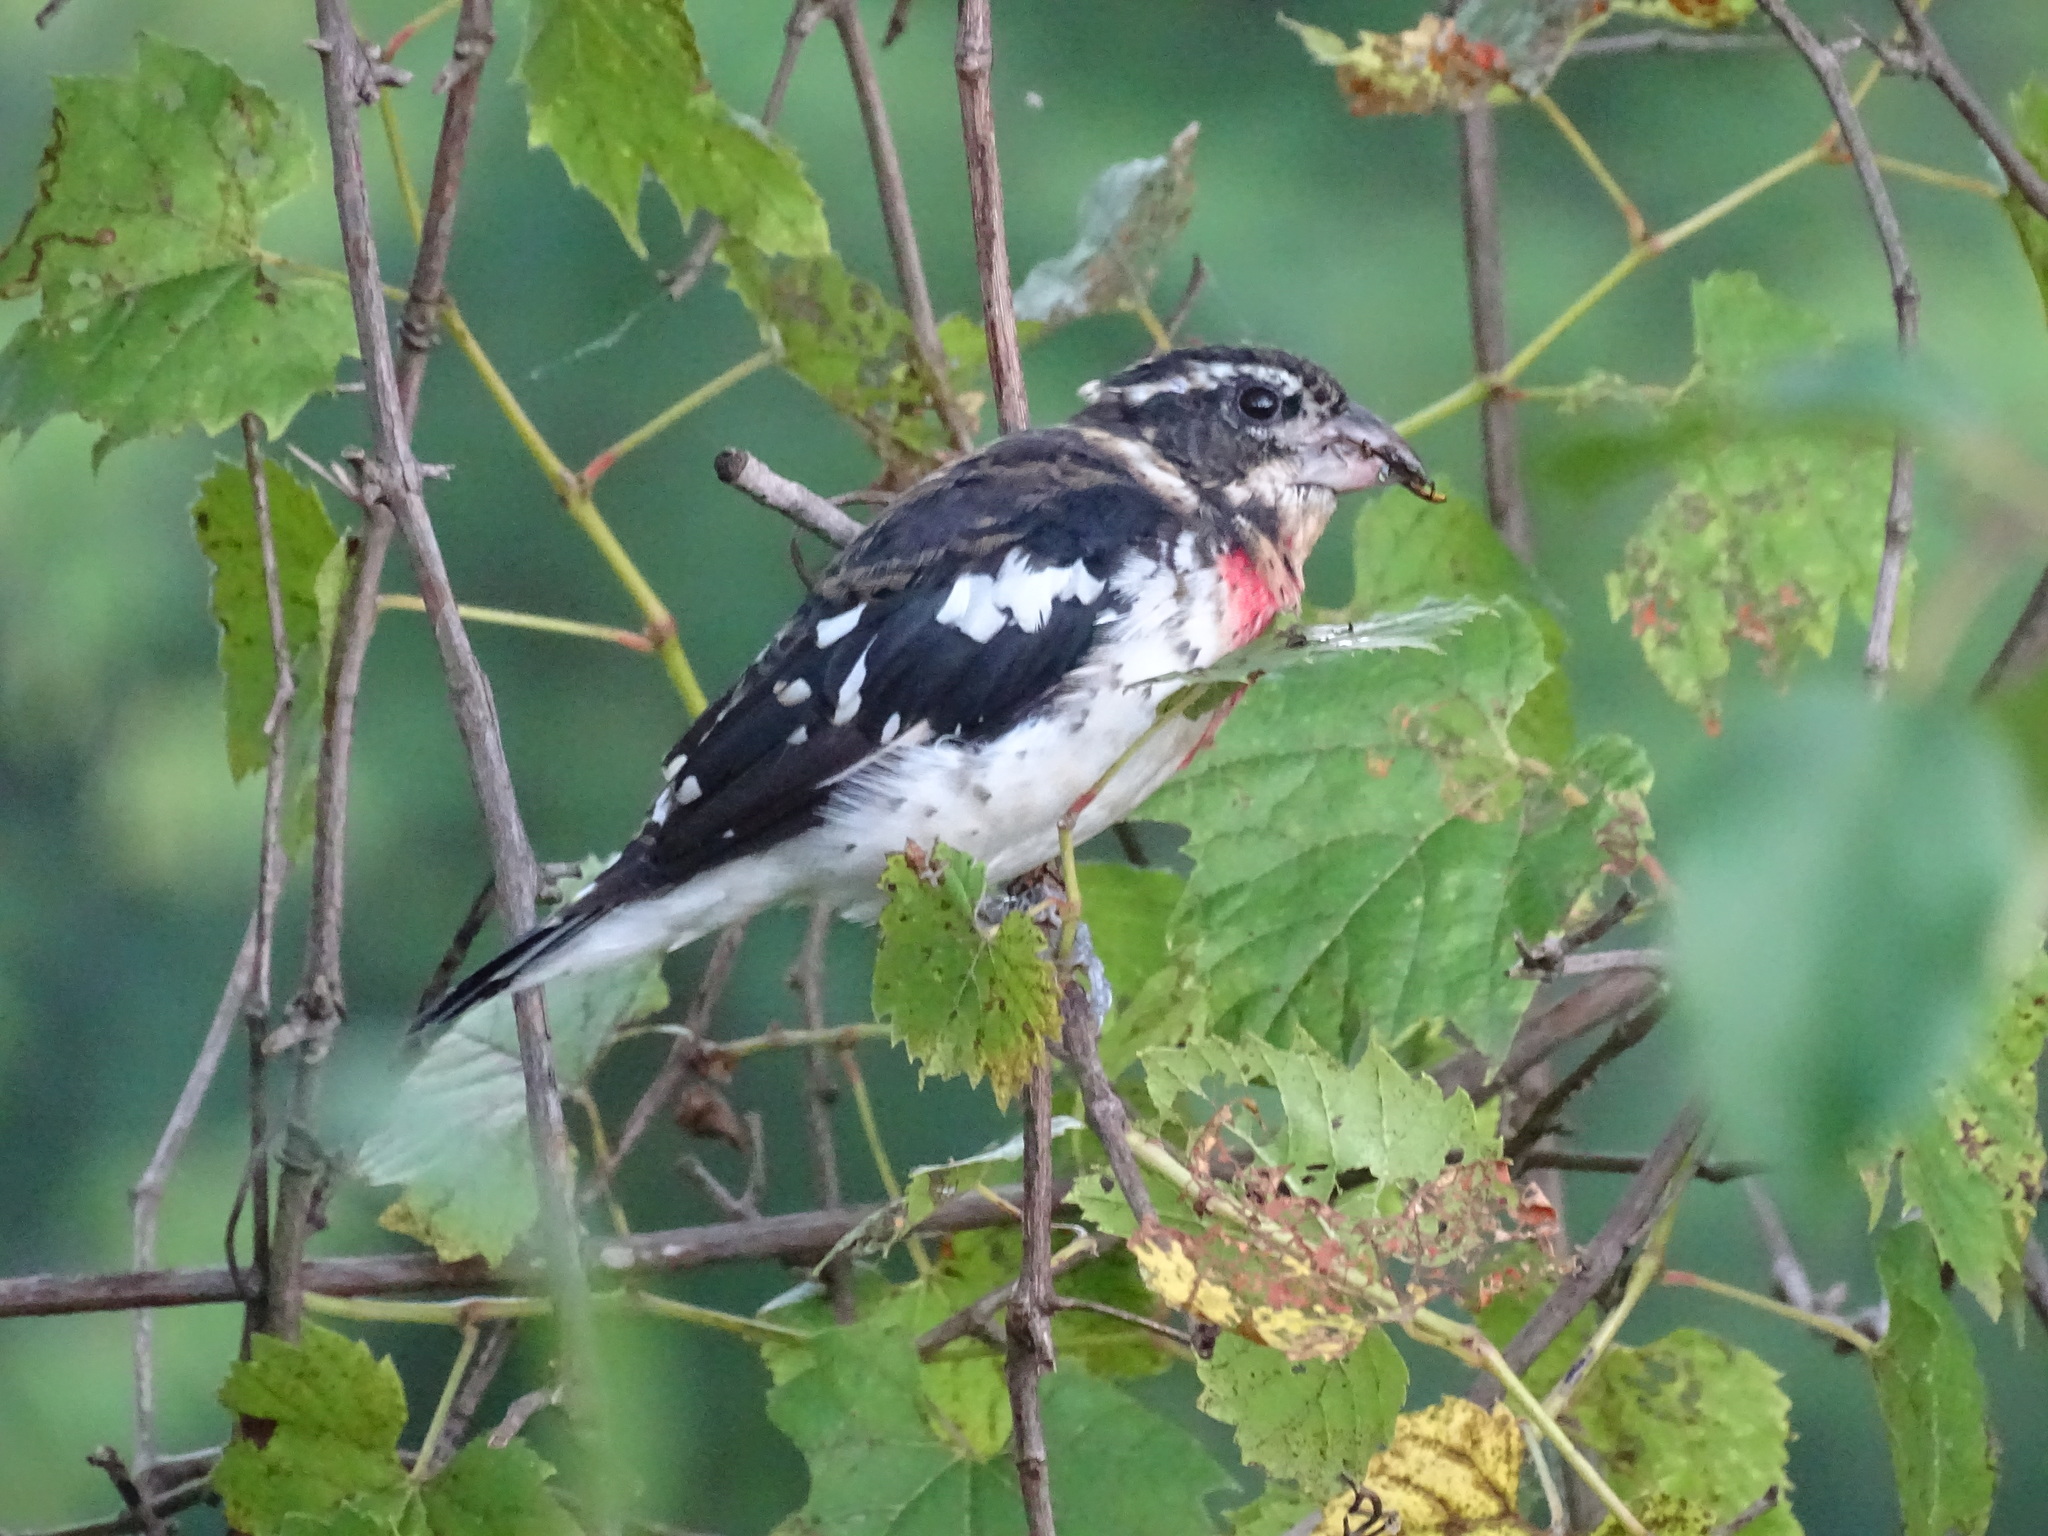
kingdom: Animalia
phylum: Chordata
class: Aves
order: Passeriformes
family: Cardinalidae
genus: Pheucticus
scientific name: Pheucticus ludovicianus
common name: Rose-breasted grosbeak
